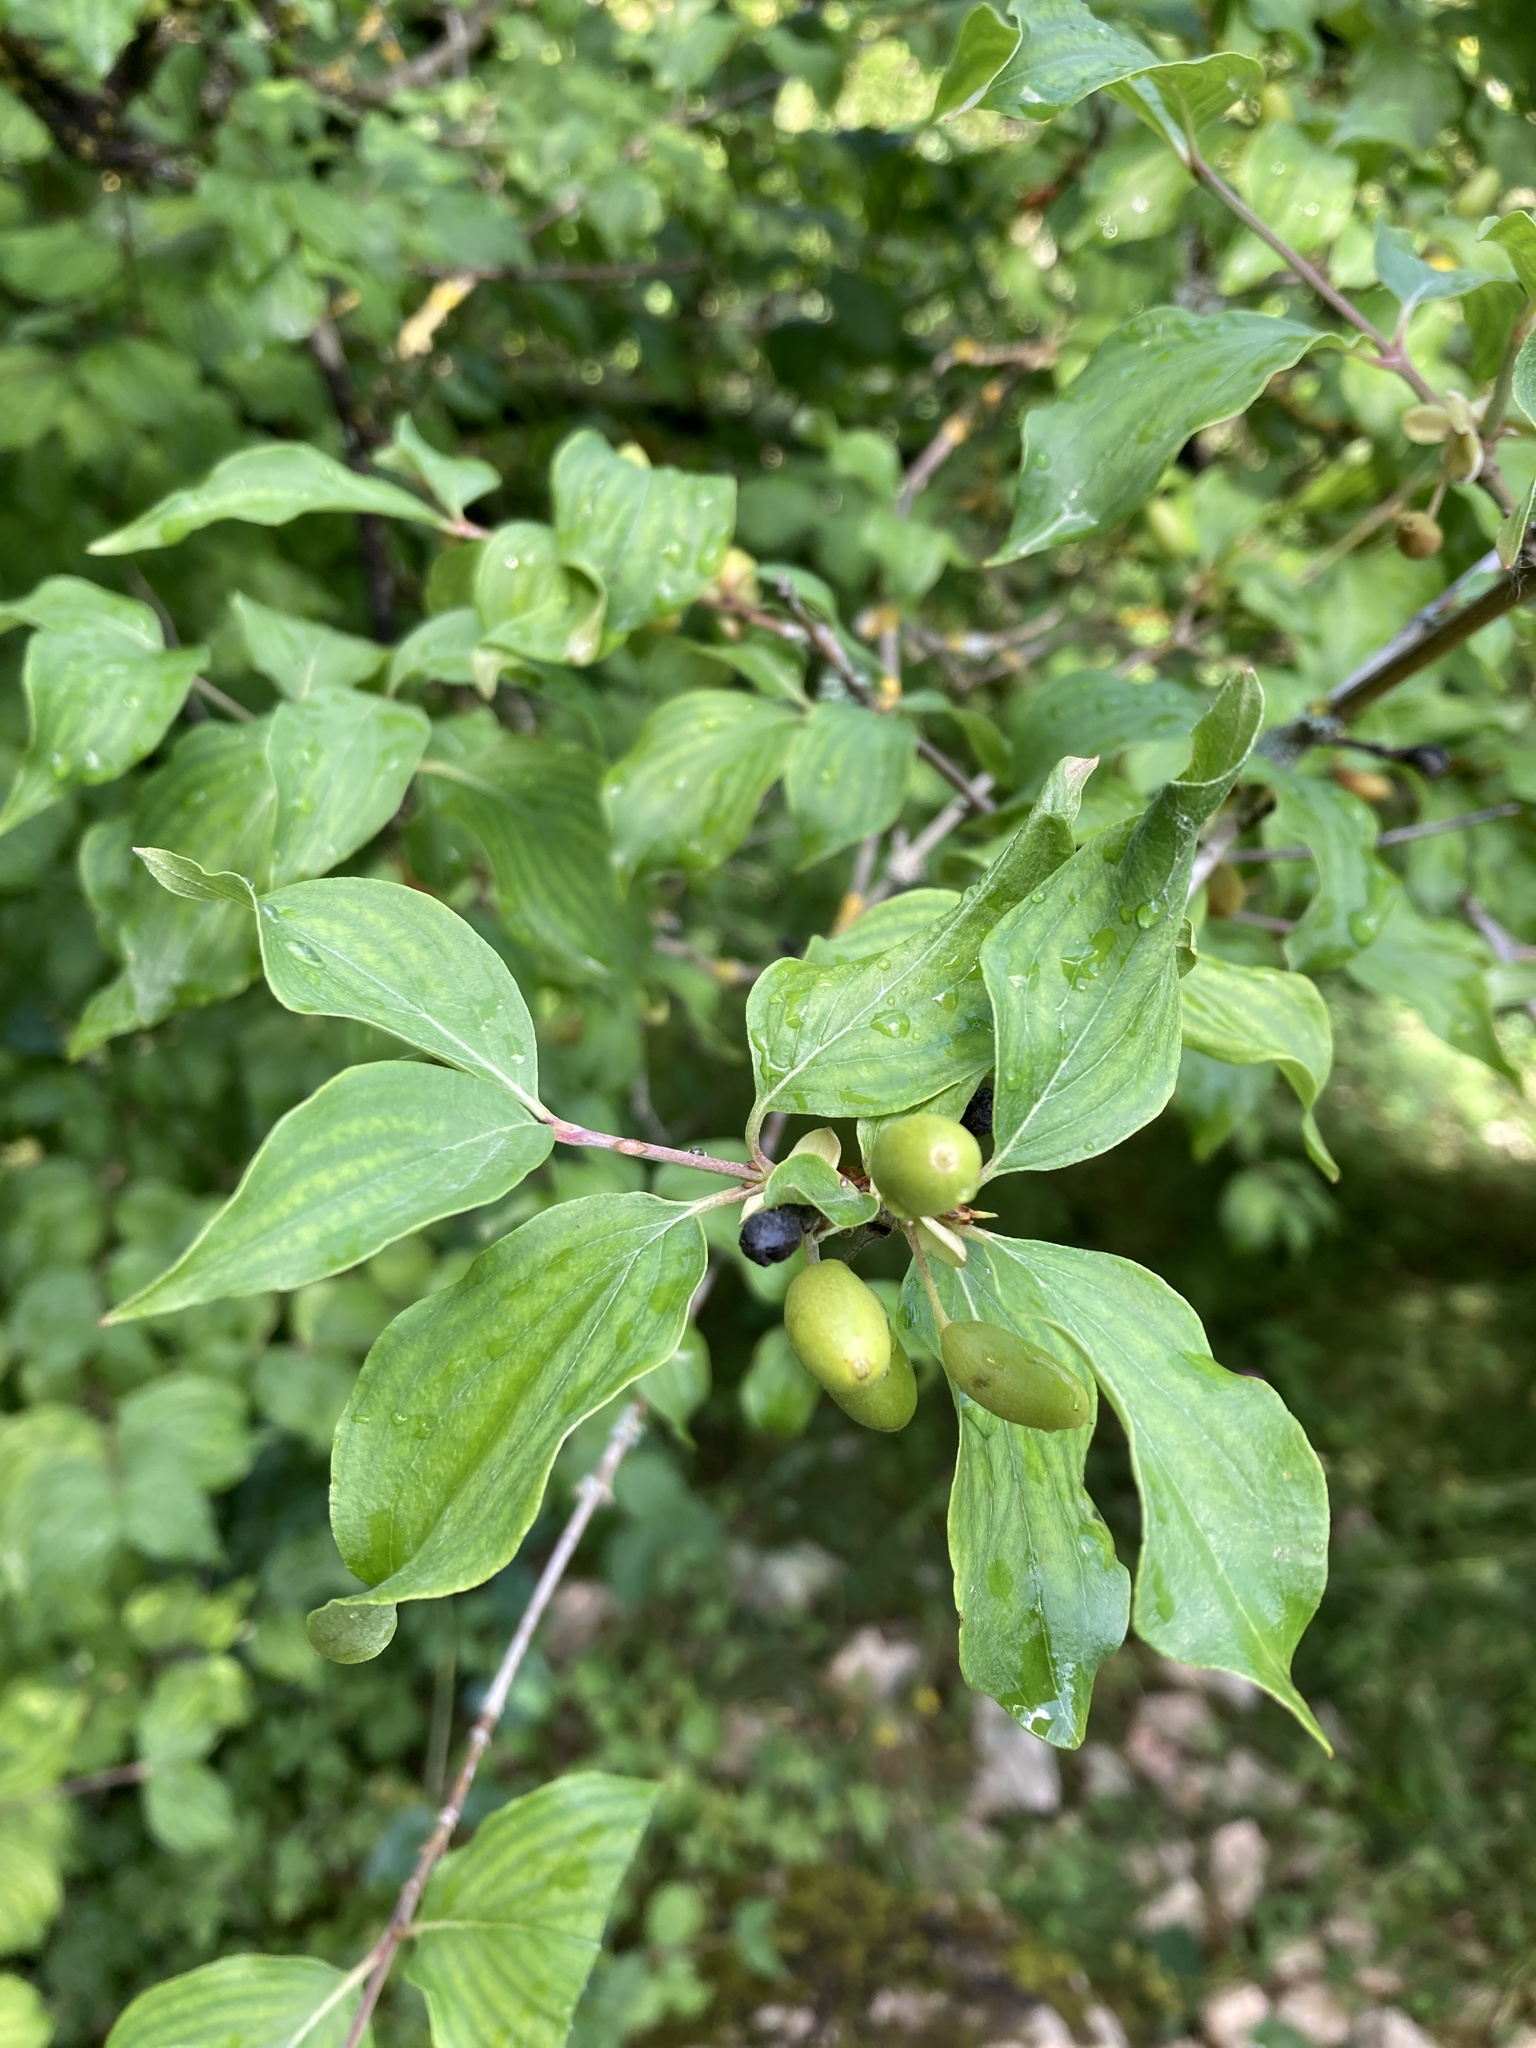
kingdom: Plantae
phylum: Tracheophyta
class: Magnoliopsida
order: Cornales
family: Cornaceae
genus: Cornus
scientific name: Cornus mas
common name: Cornelian-cherry
